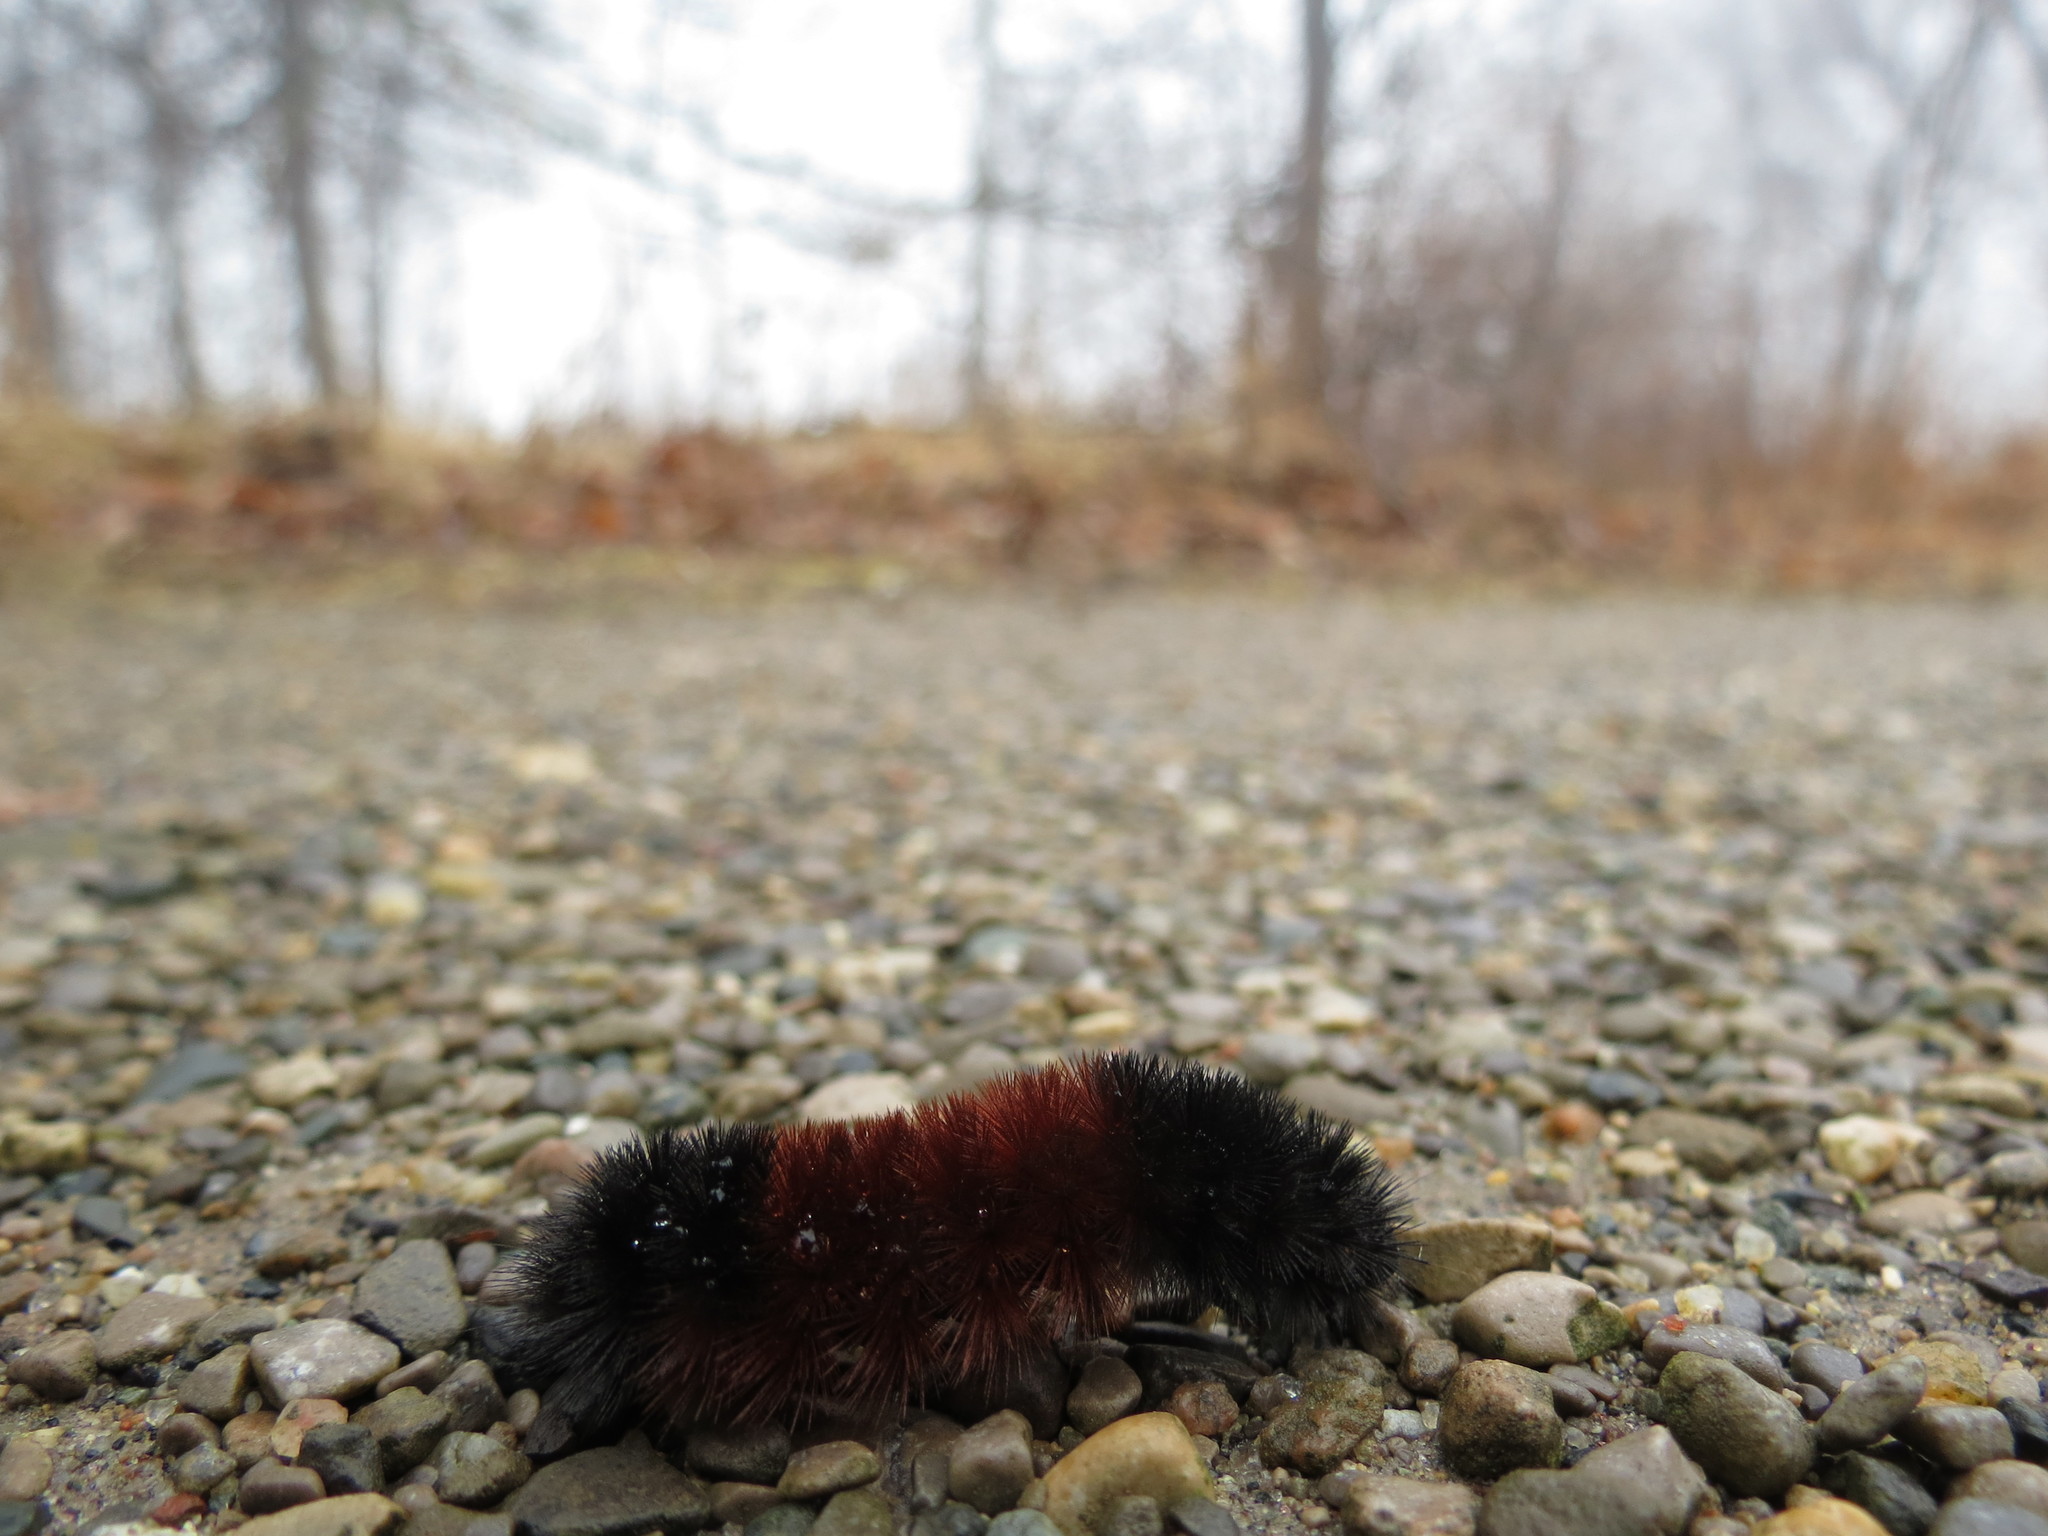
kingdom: Animalia
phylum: Arthropoda
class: Insecta
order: Lepidoptera
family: Erebidae
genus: Pyrrharctia
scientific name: Pyrrharctia isabella
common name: Isabella tiger moth
